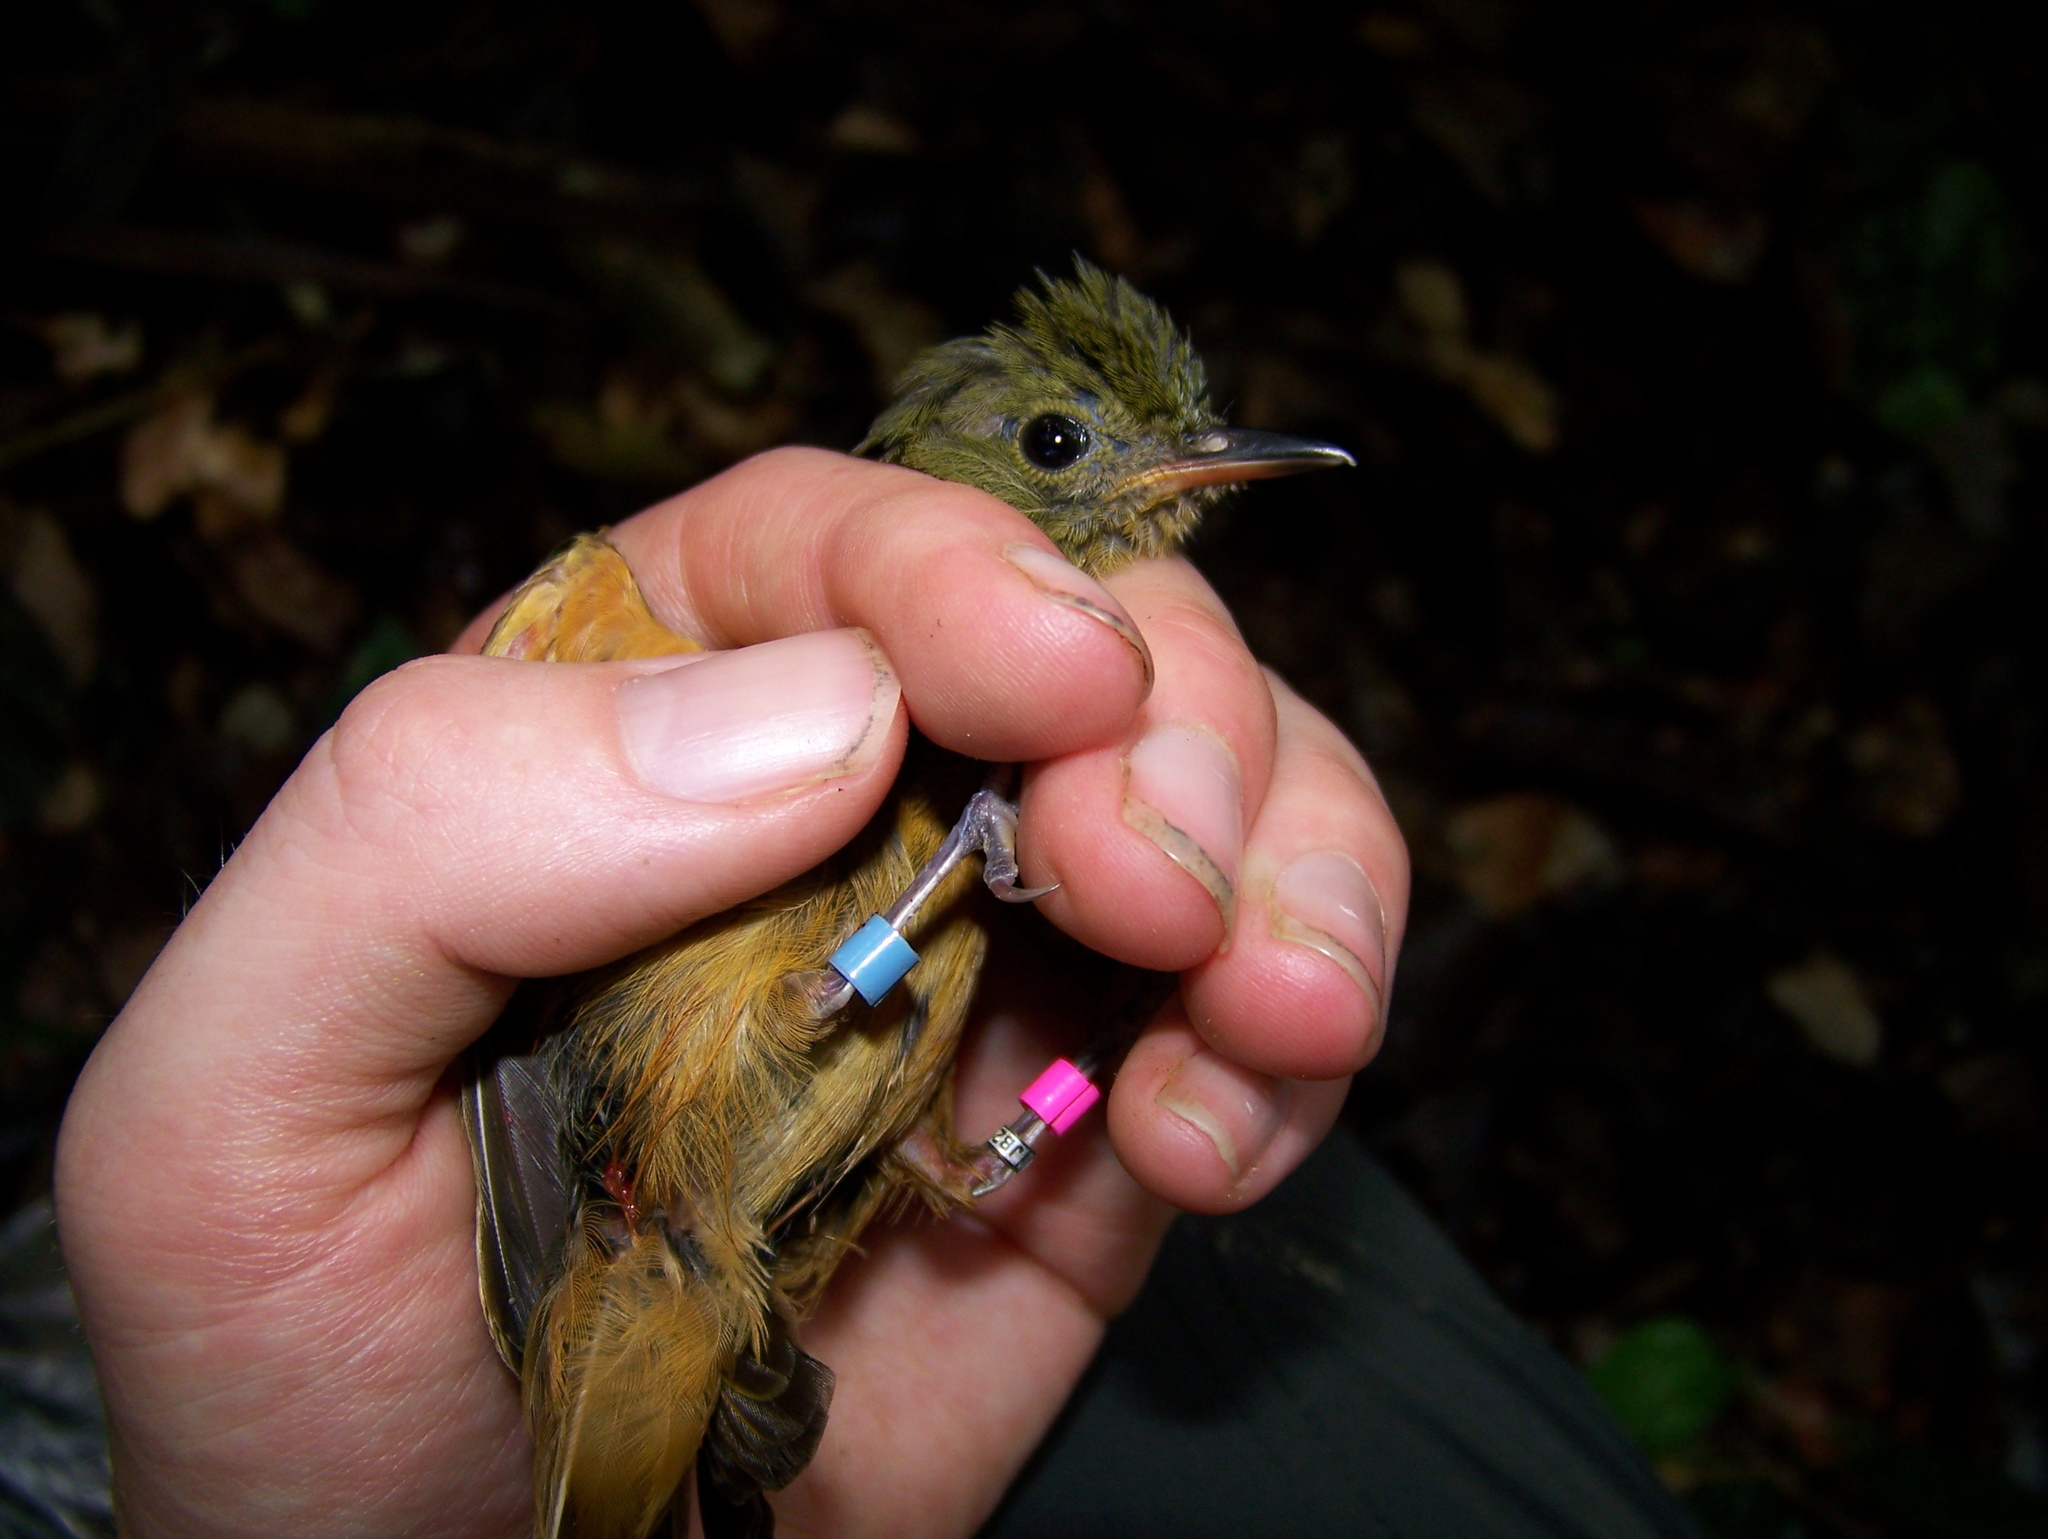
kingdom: Animalia
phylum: Chordata
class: Aves
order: Passeriformes
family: Tyrannidae
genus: Mionectes
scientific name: Mionectes oleagineus
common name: Ochre-bellied flycatcher
